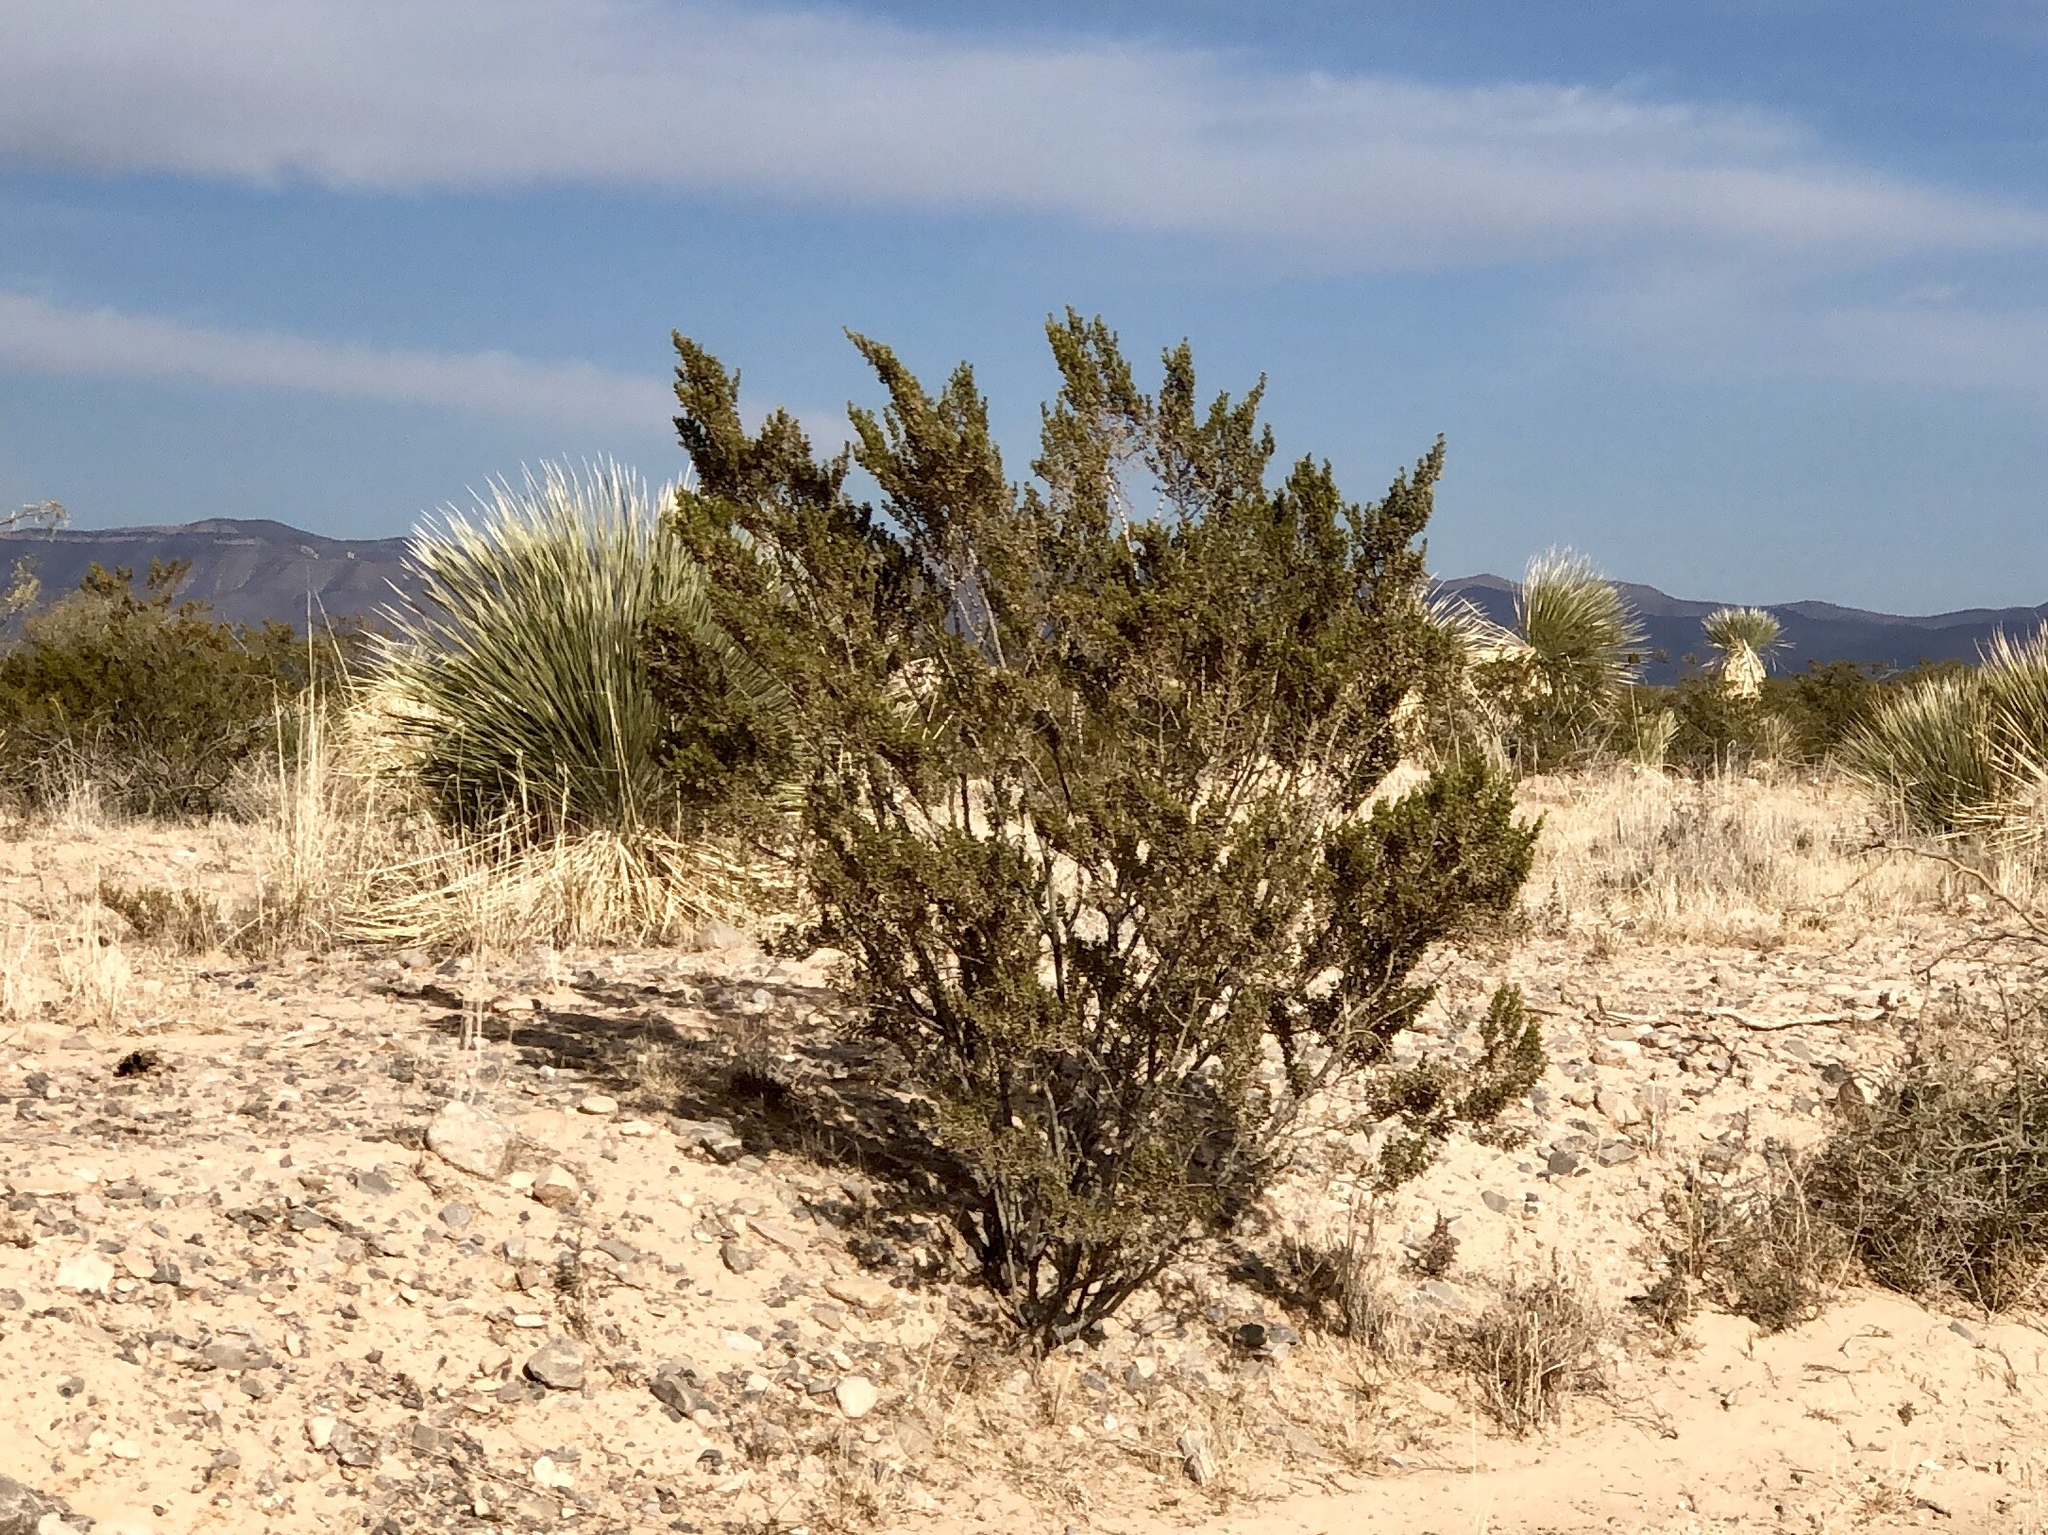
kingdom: Plantae
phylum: Tracheophyta
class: Magnoliopsida
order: Zygophyllales
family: Zygophyllaceae
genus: Larrea
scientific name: Larrea tridentata
